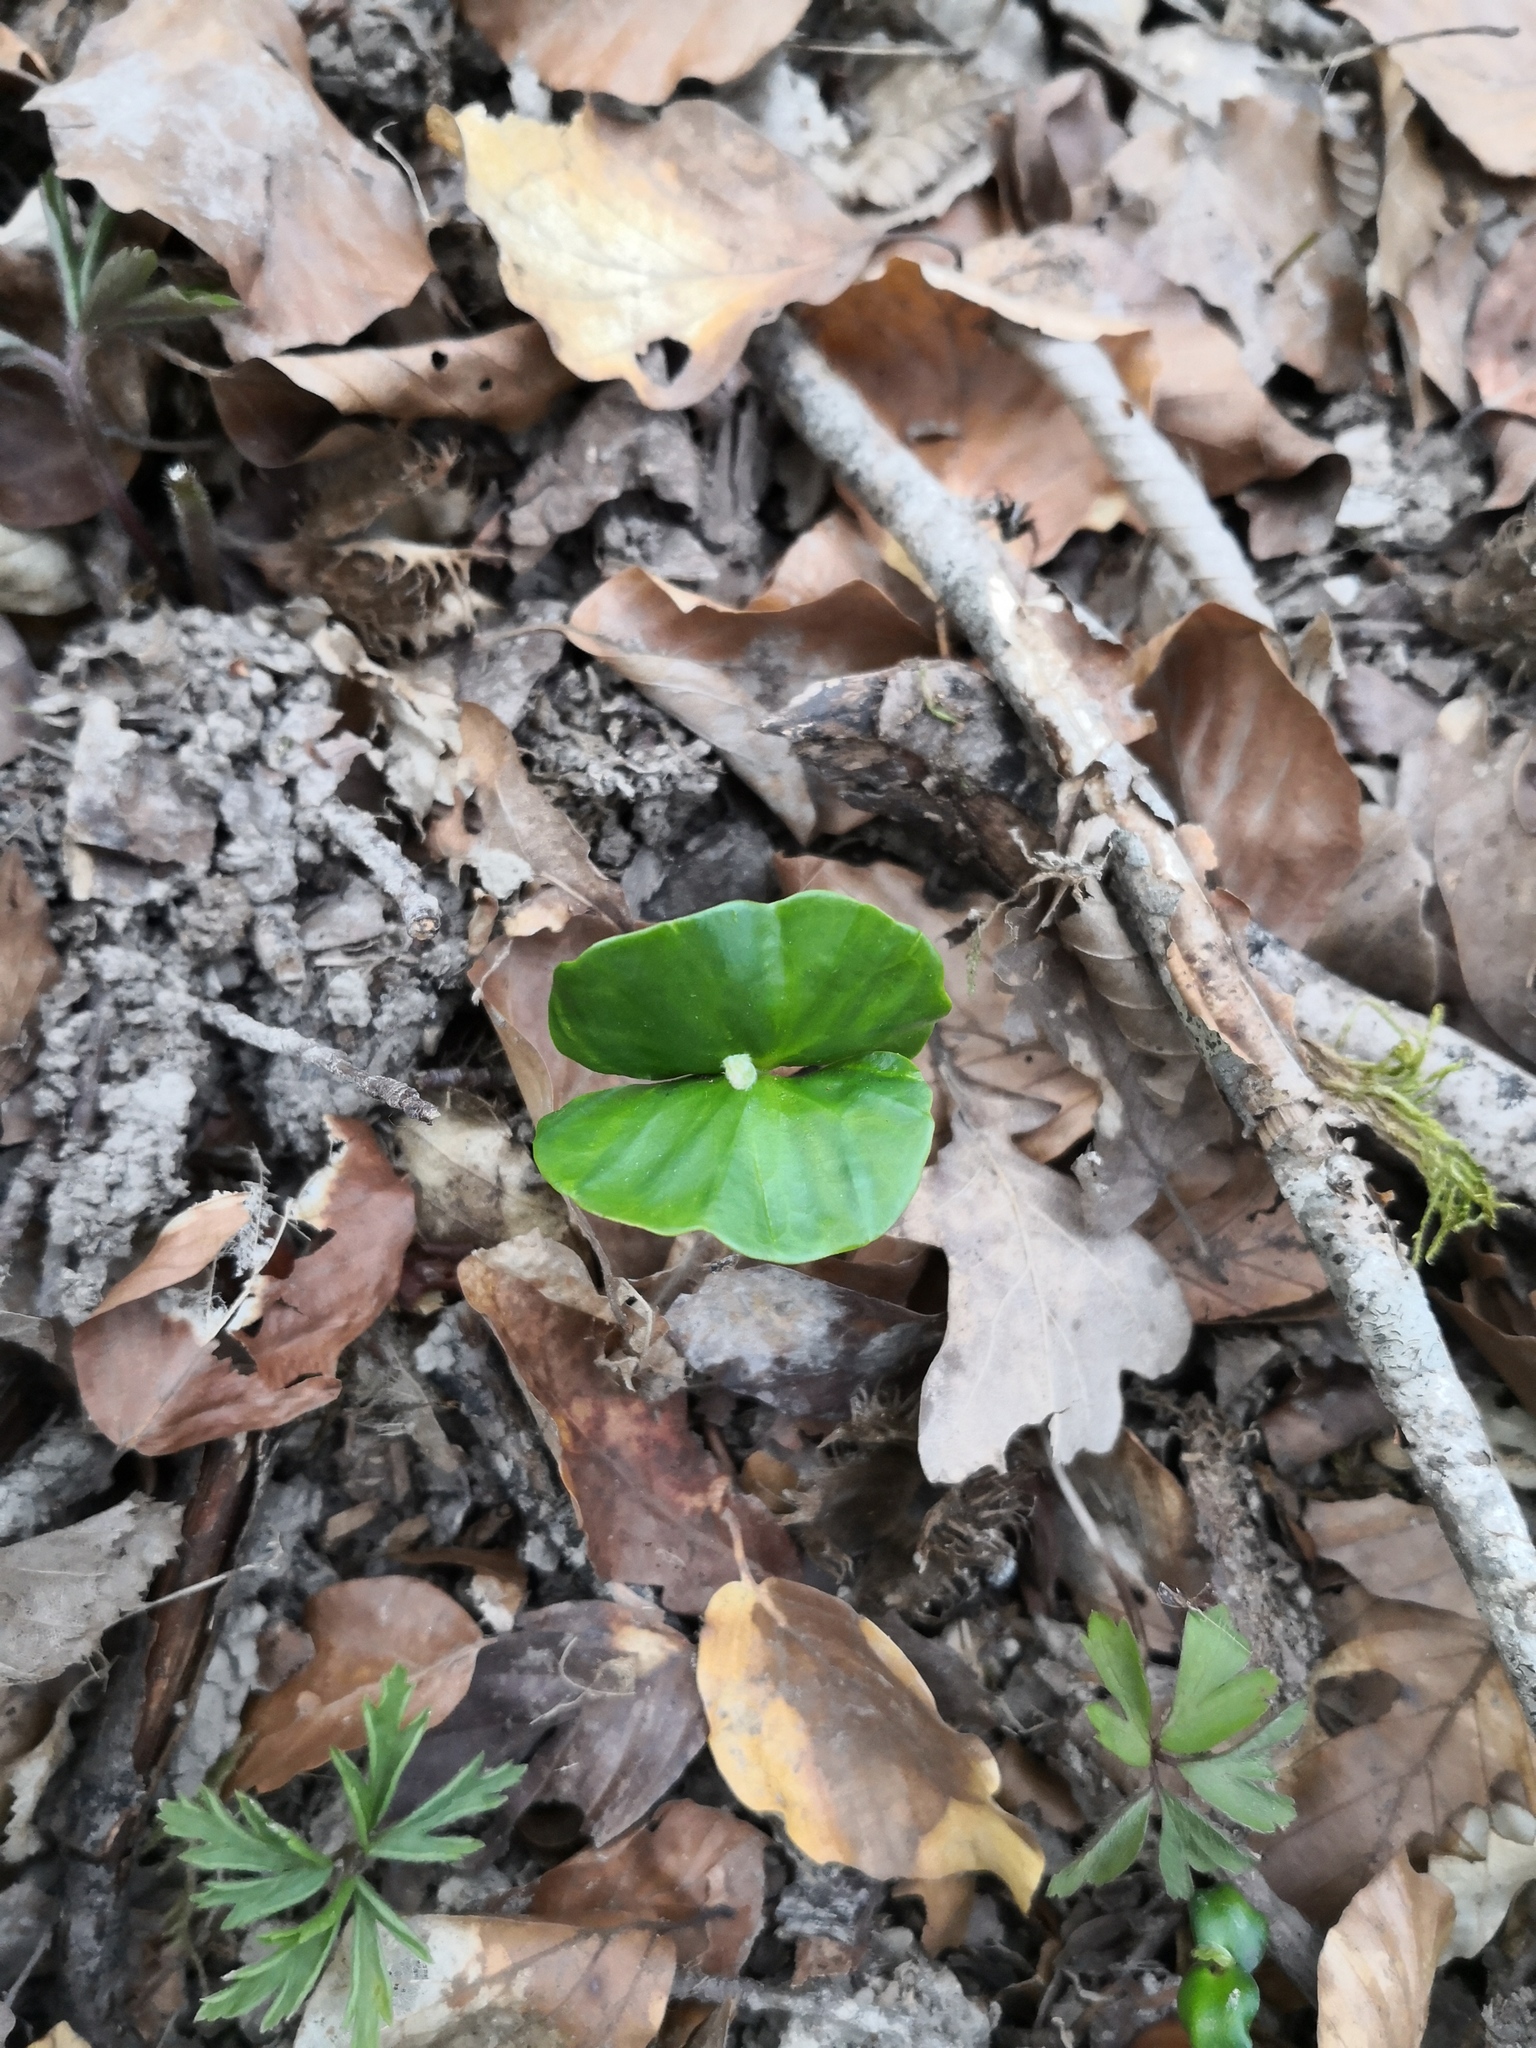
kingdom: Plantae
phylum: Tracheophyta
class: Magnoliopsida
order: Fagales
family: Fagaceae
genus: Fagus
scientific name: Fagus sylvatica
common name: Beech
